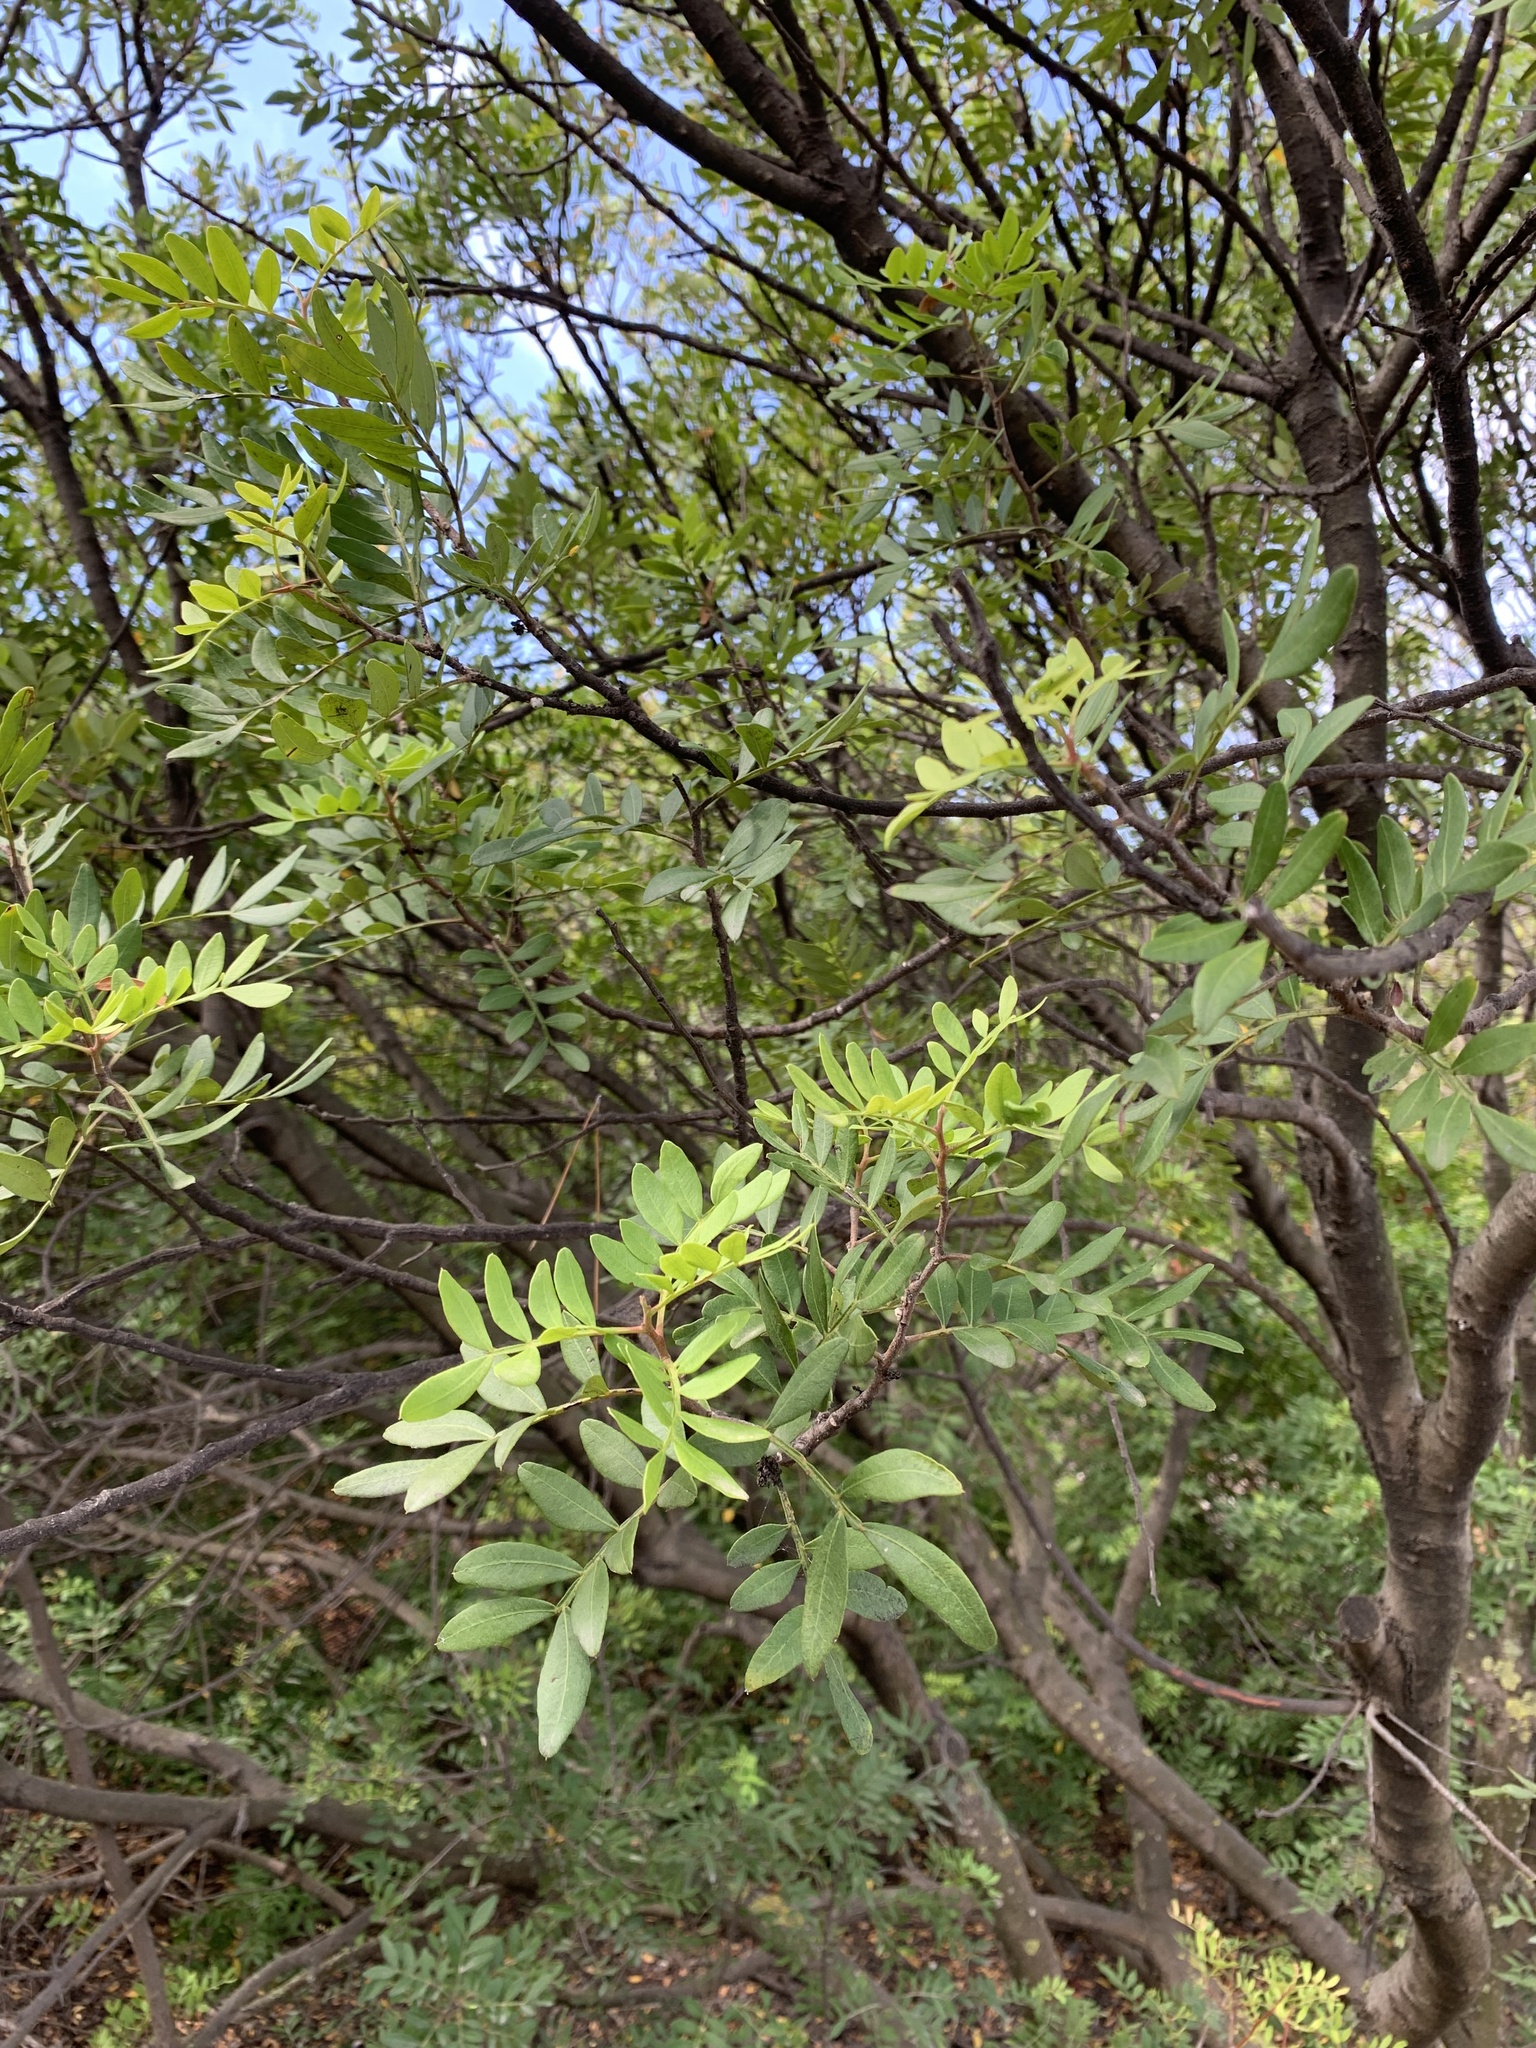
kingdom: Plantae
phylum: Tracheophyta
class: Magnoliopsida
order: Sapindales
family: Anacardiaceae
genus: Pistacia
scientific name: Pistacia lentiscus
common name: Lentisk
